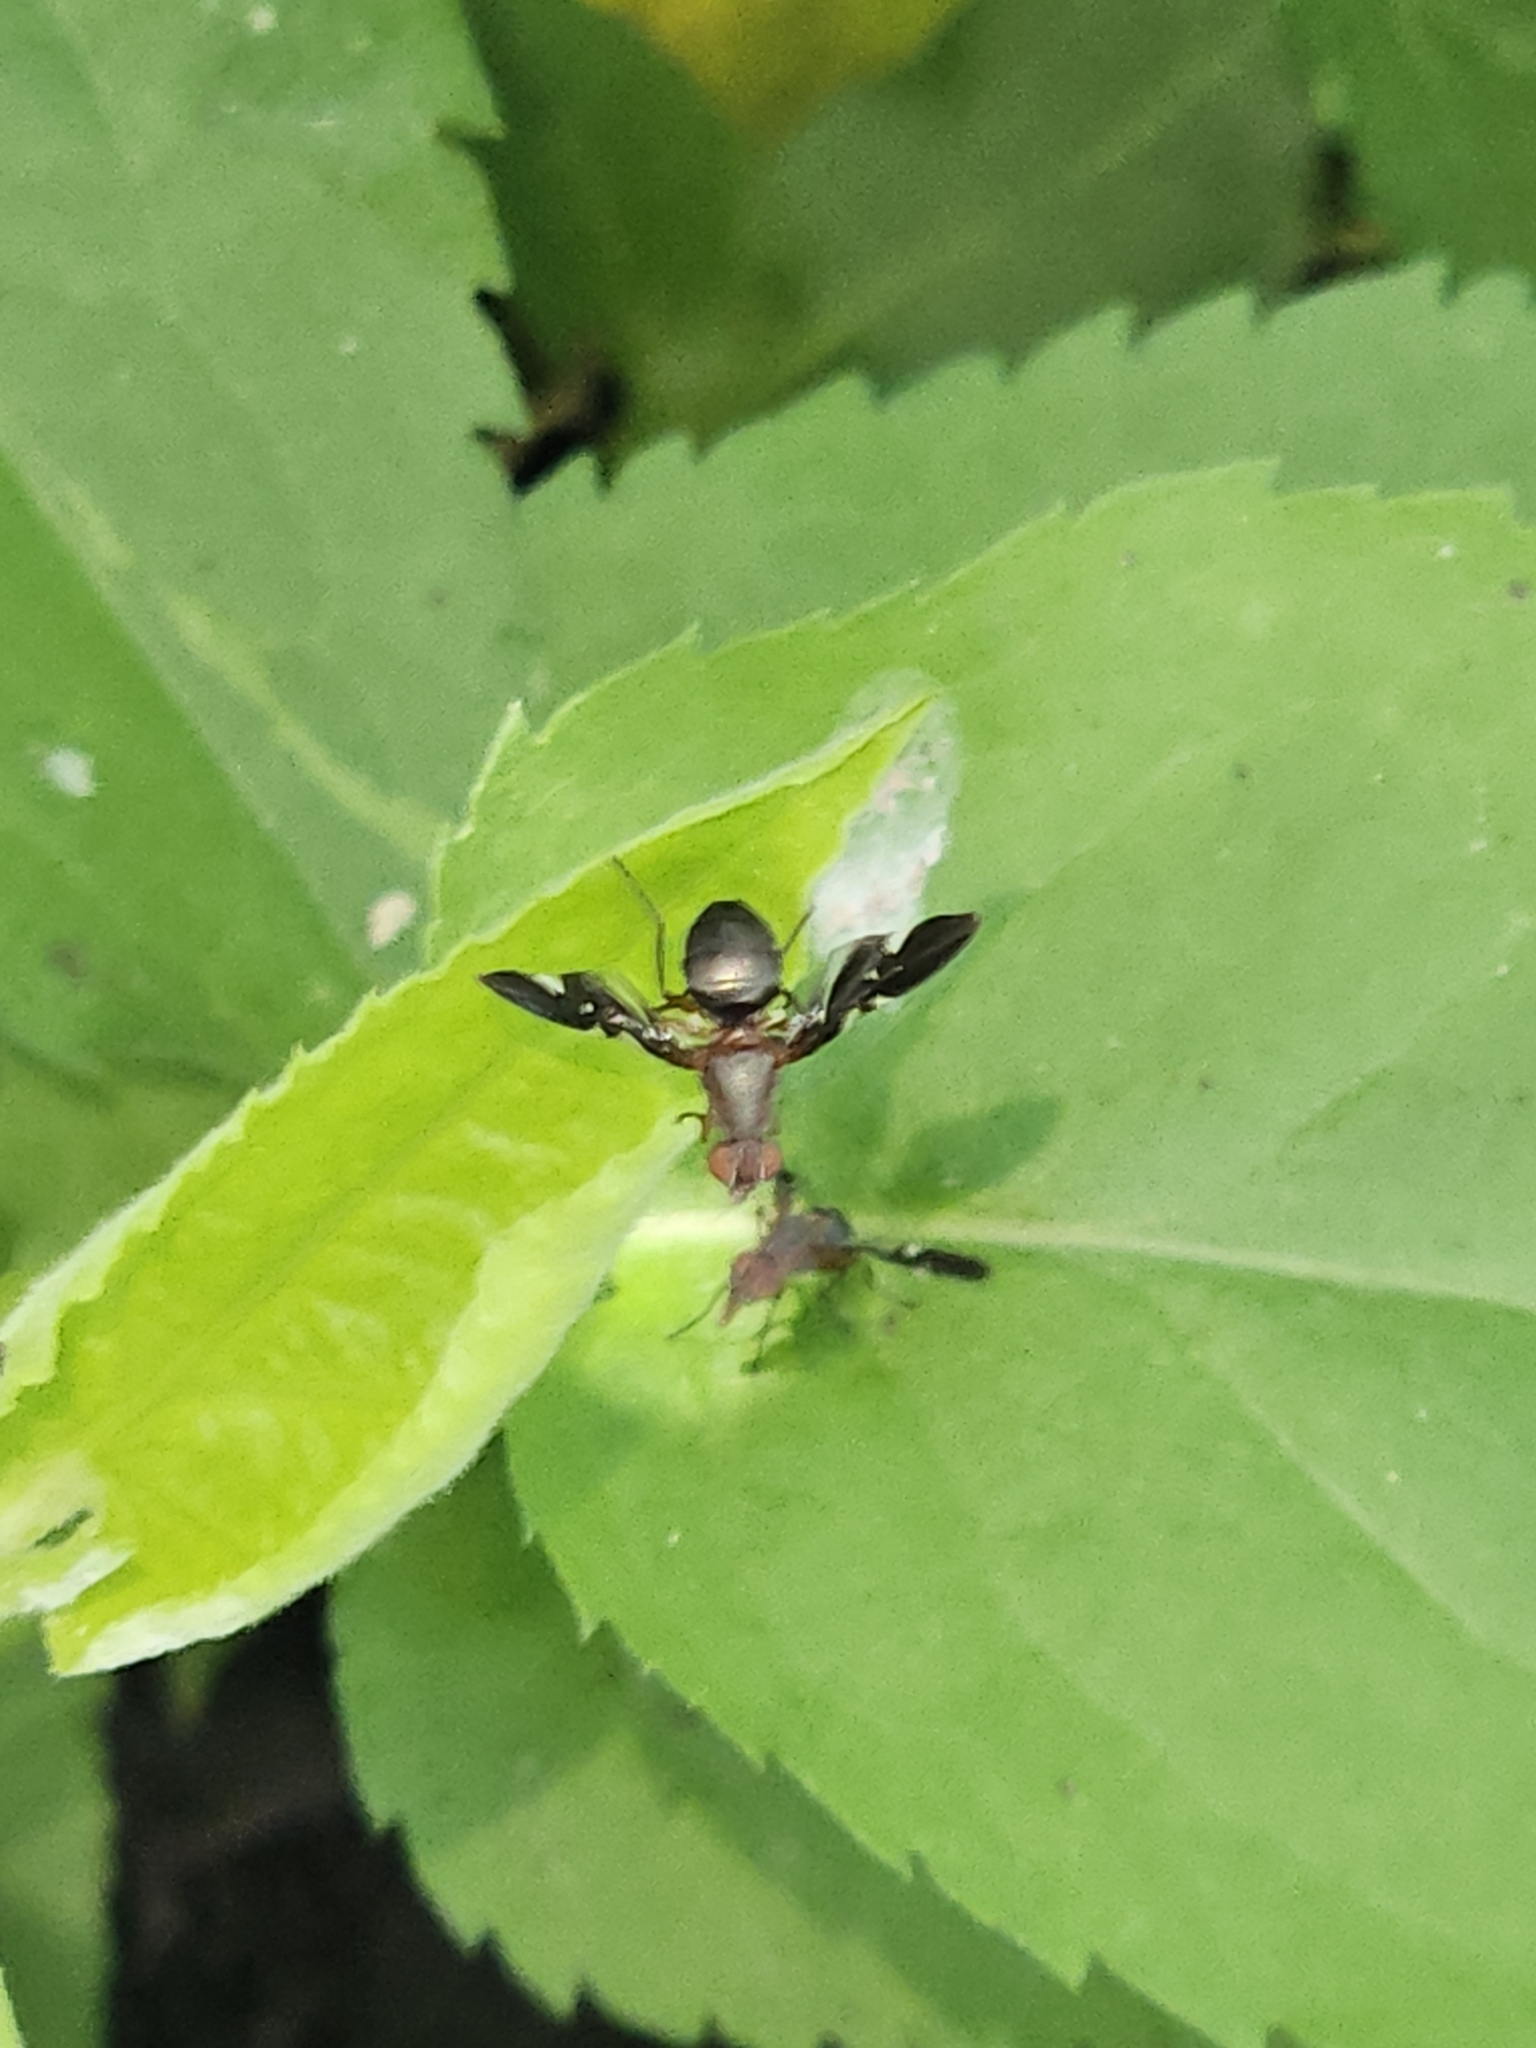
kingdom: Animalia
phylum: Arthropoda
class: Insecta
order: Diptera
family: Ulidiidae
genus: Delphinia
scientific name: Delphinia picta
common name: Common picture-winged fly
